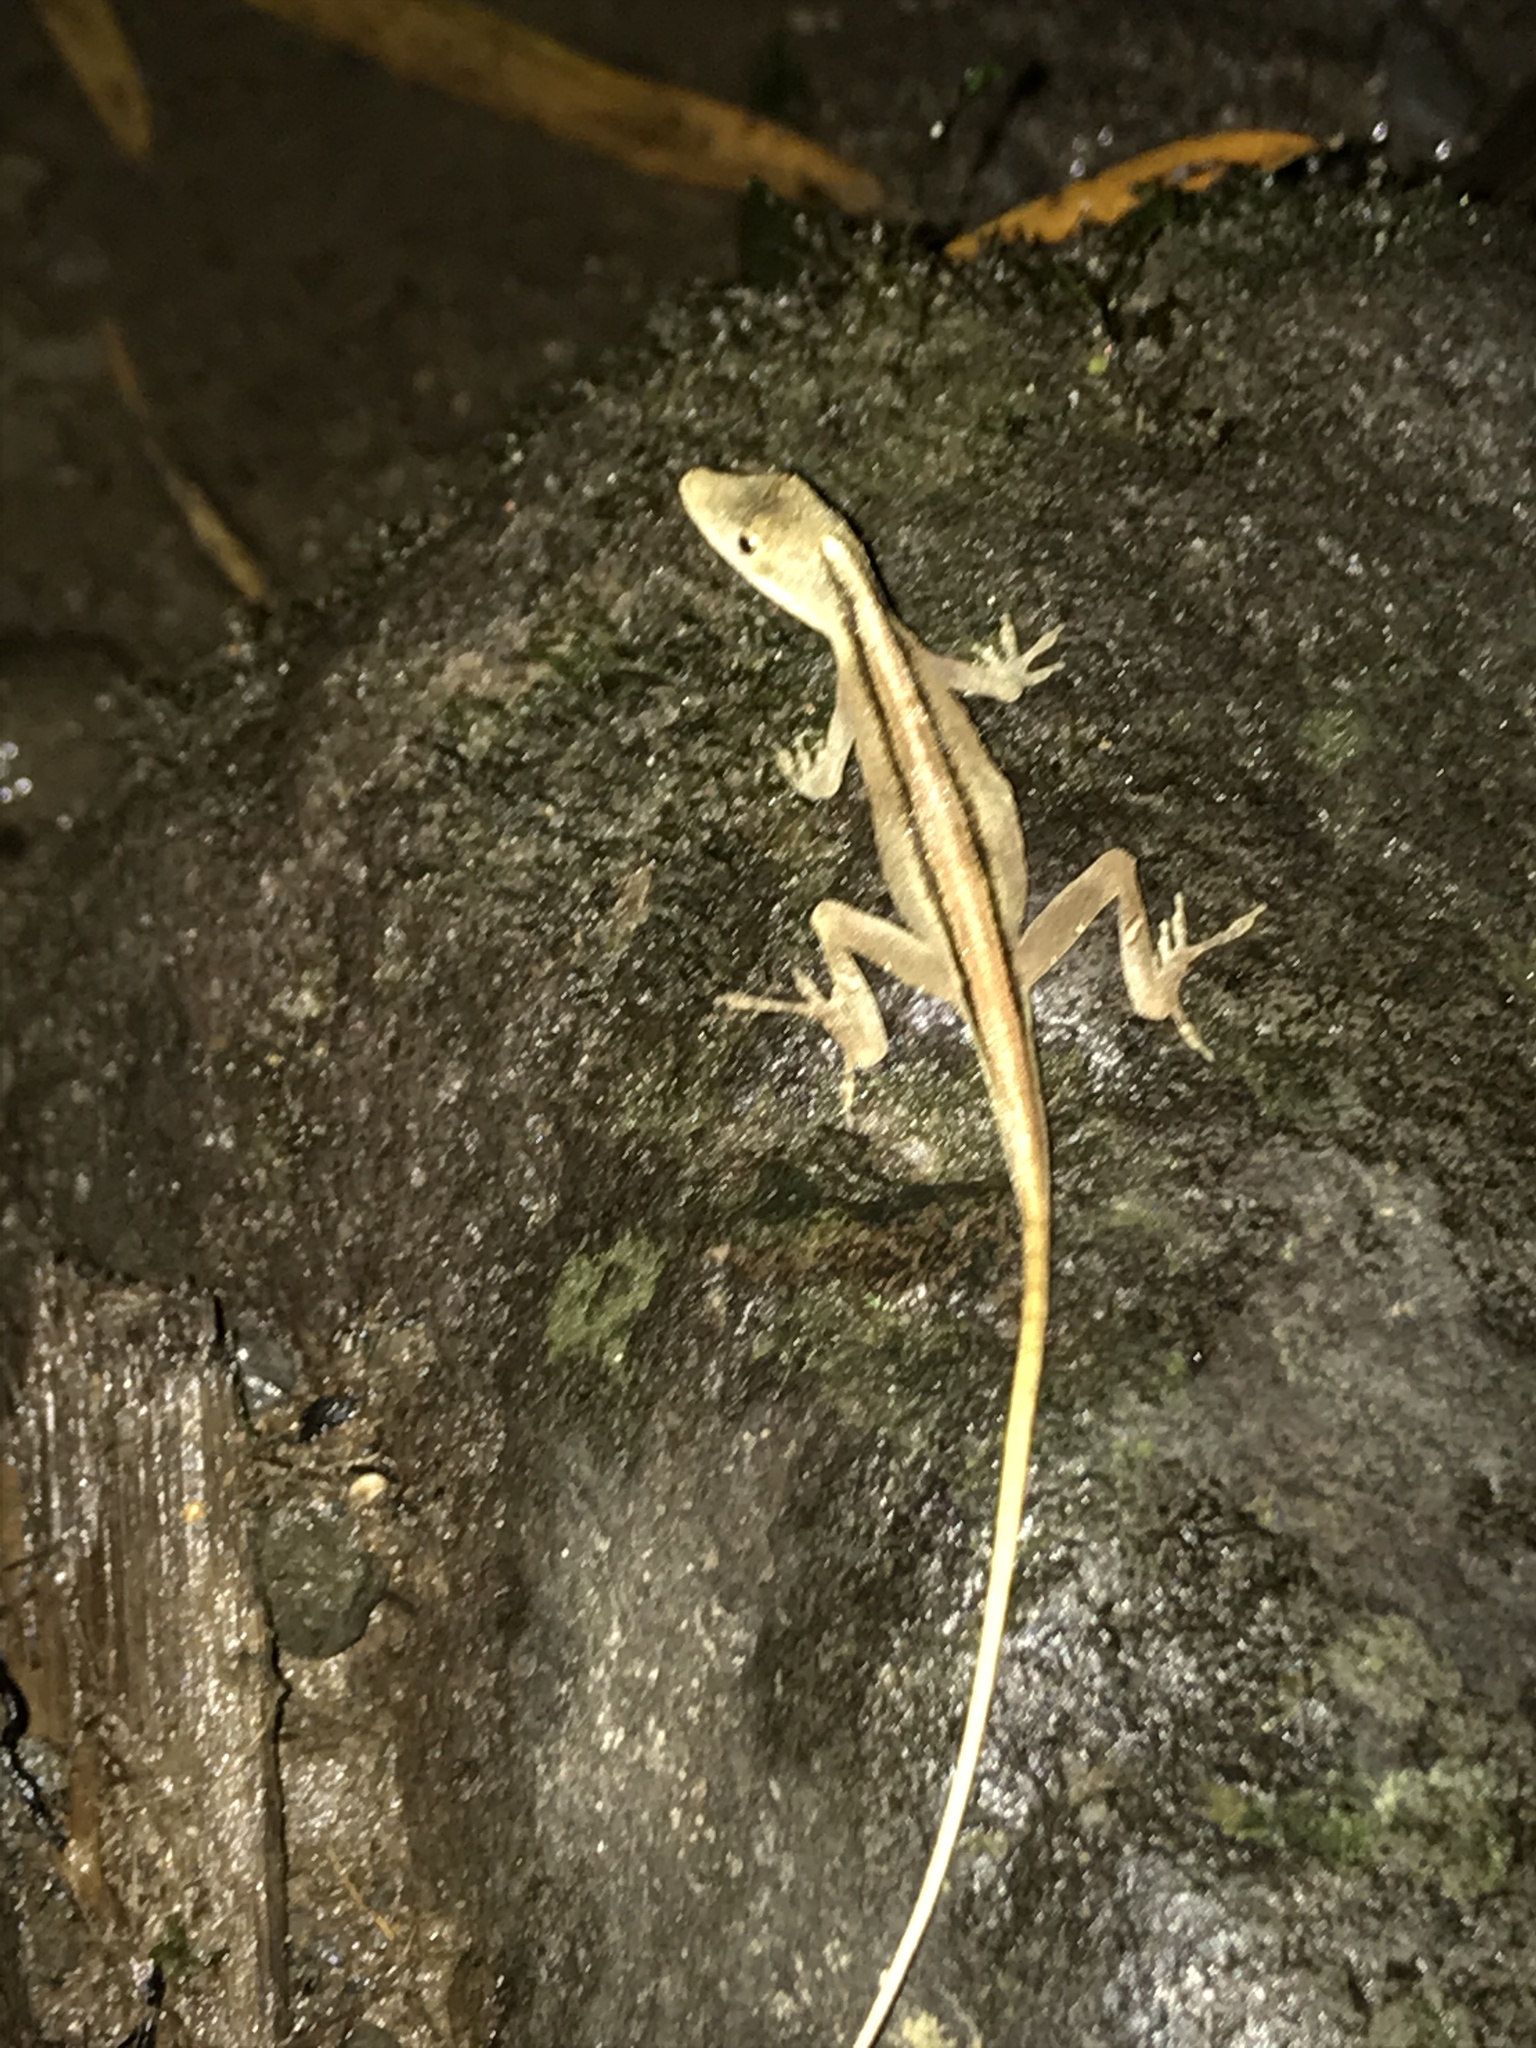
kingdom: Animalia
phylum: Chordata
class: Squamata
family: Dactyloidae
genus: Anolis
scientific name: Anolis antonii
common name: Anton's anole
